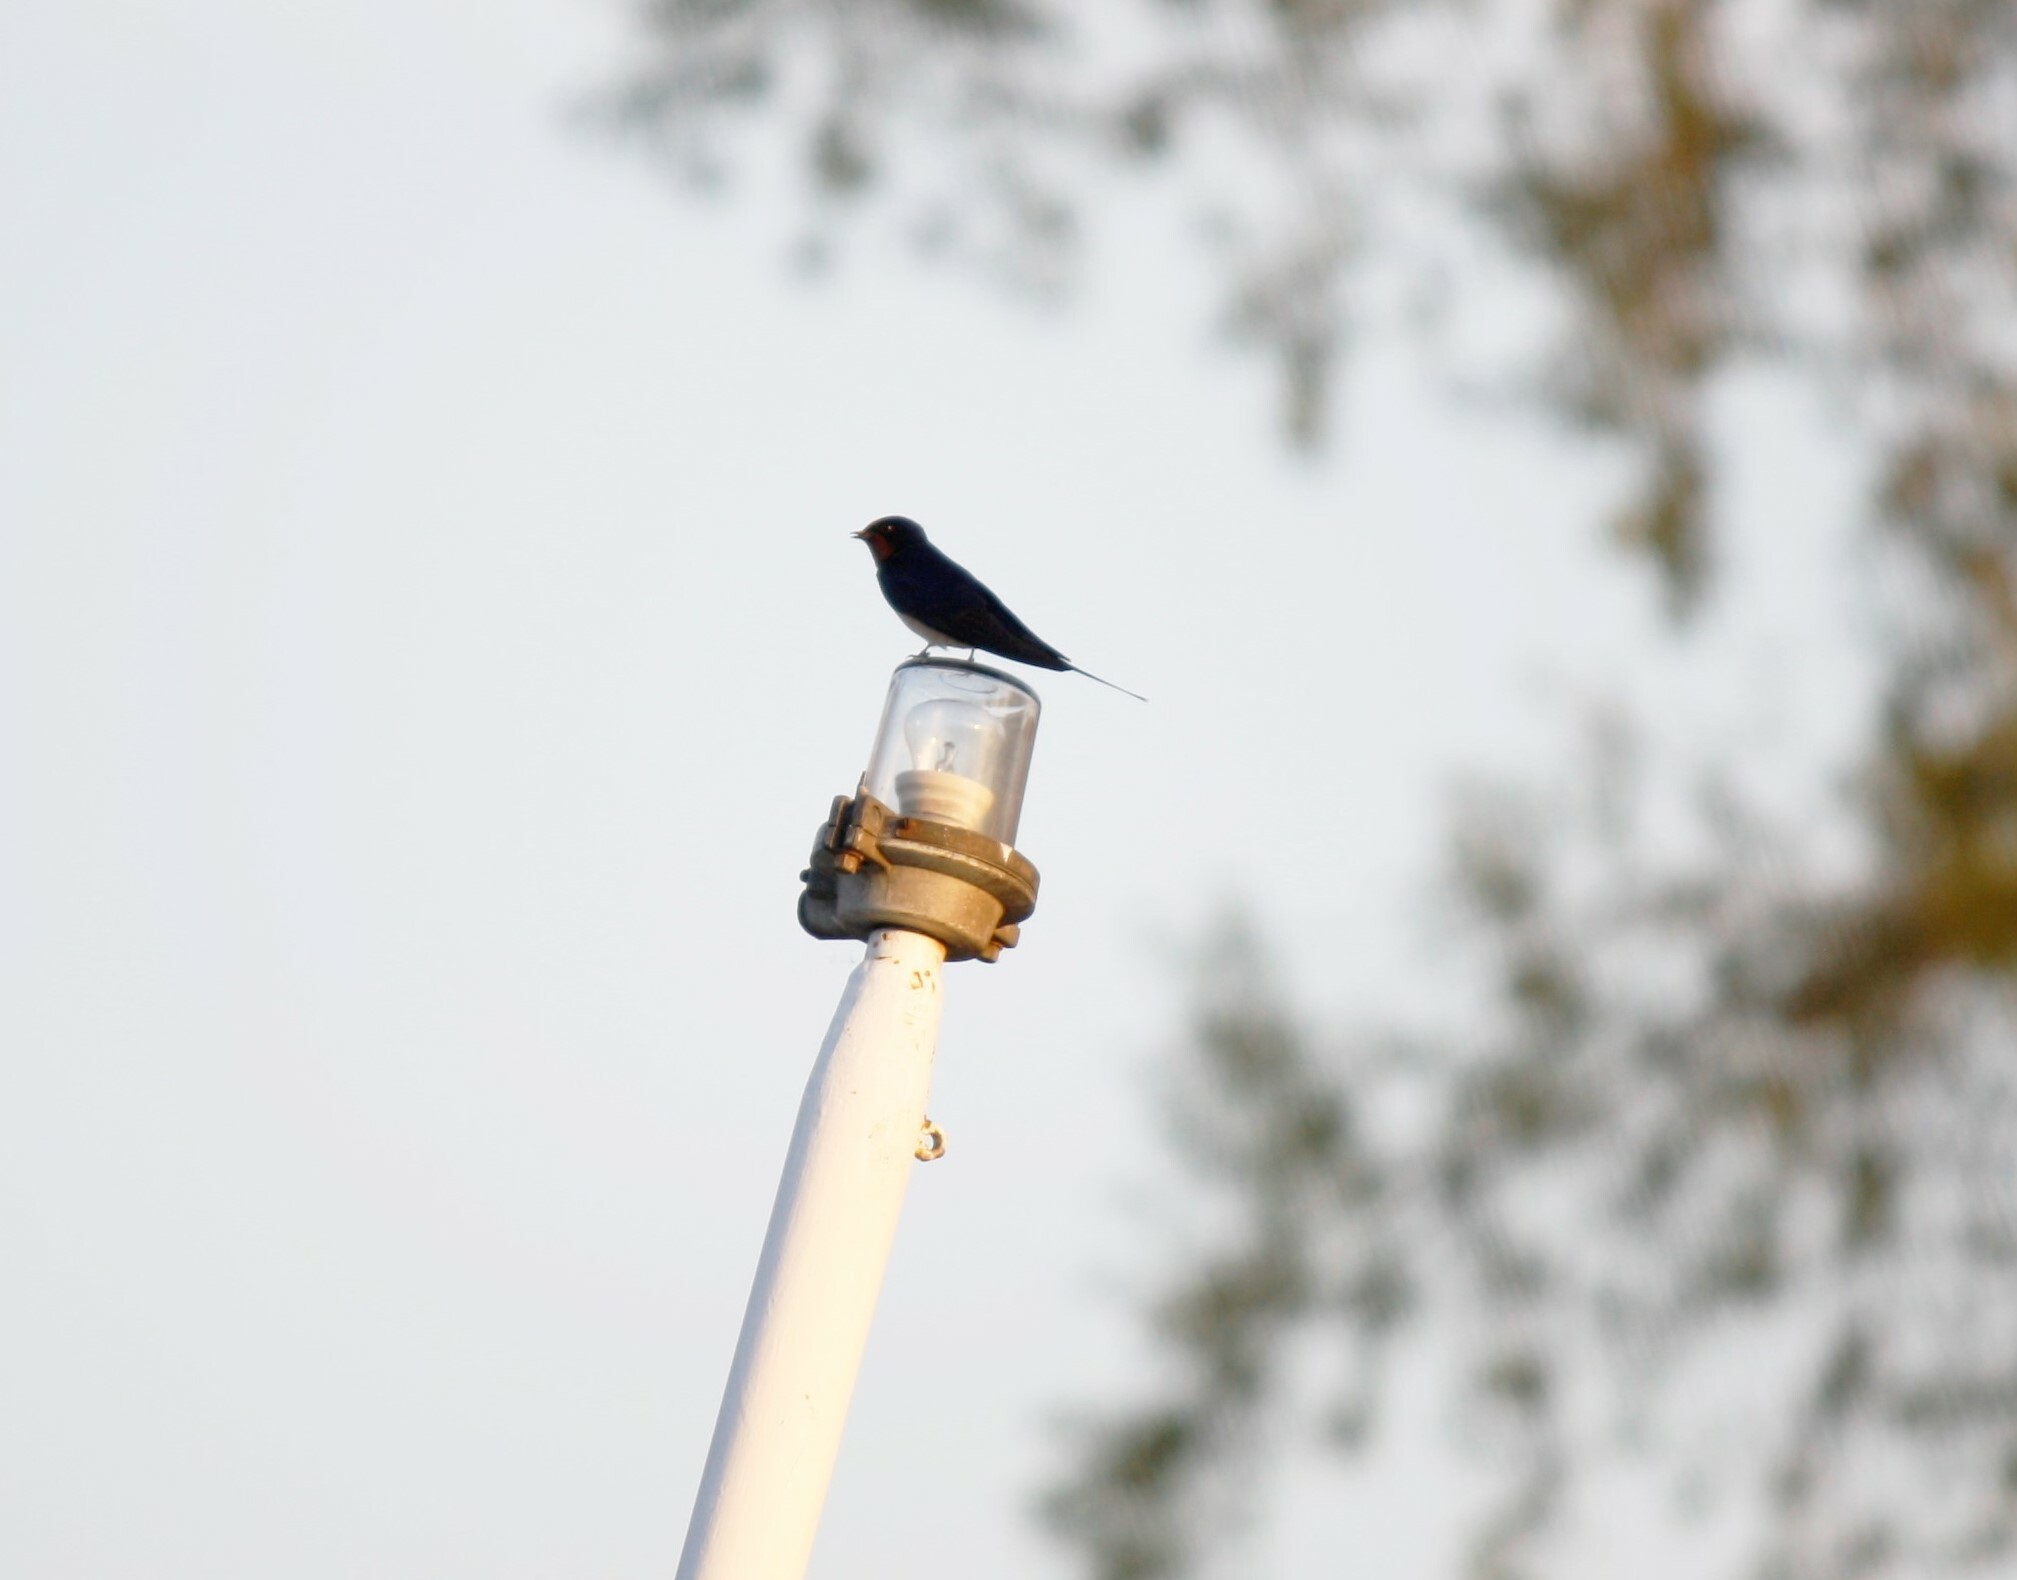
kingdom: Animalia
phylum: Chordata
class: Aves
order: Passeriformes
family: Hirundinidae
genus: Hirundo
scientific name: Hirundo rustica
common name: Barn swallow
